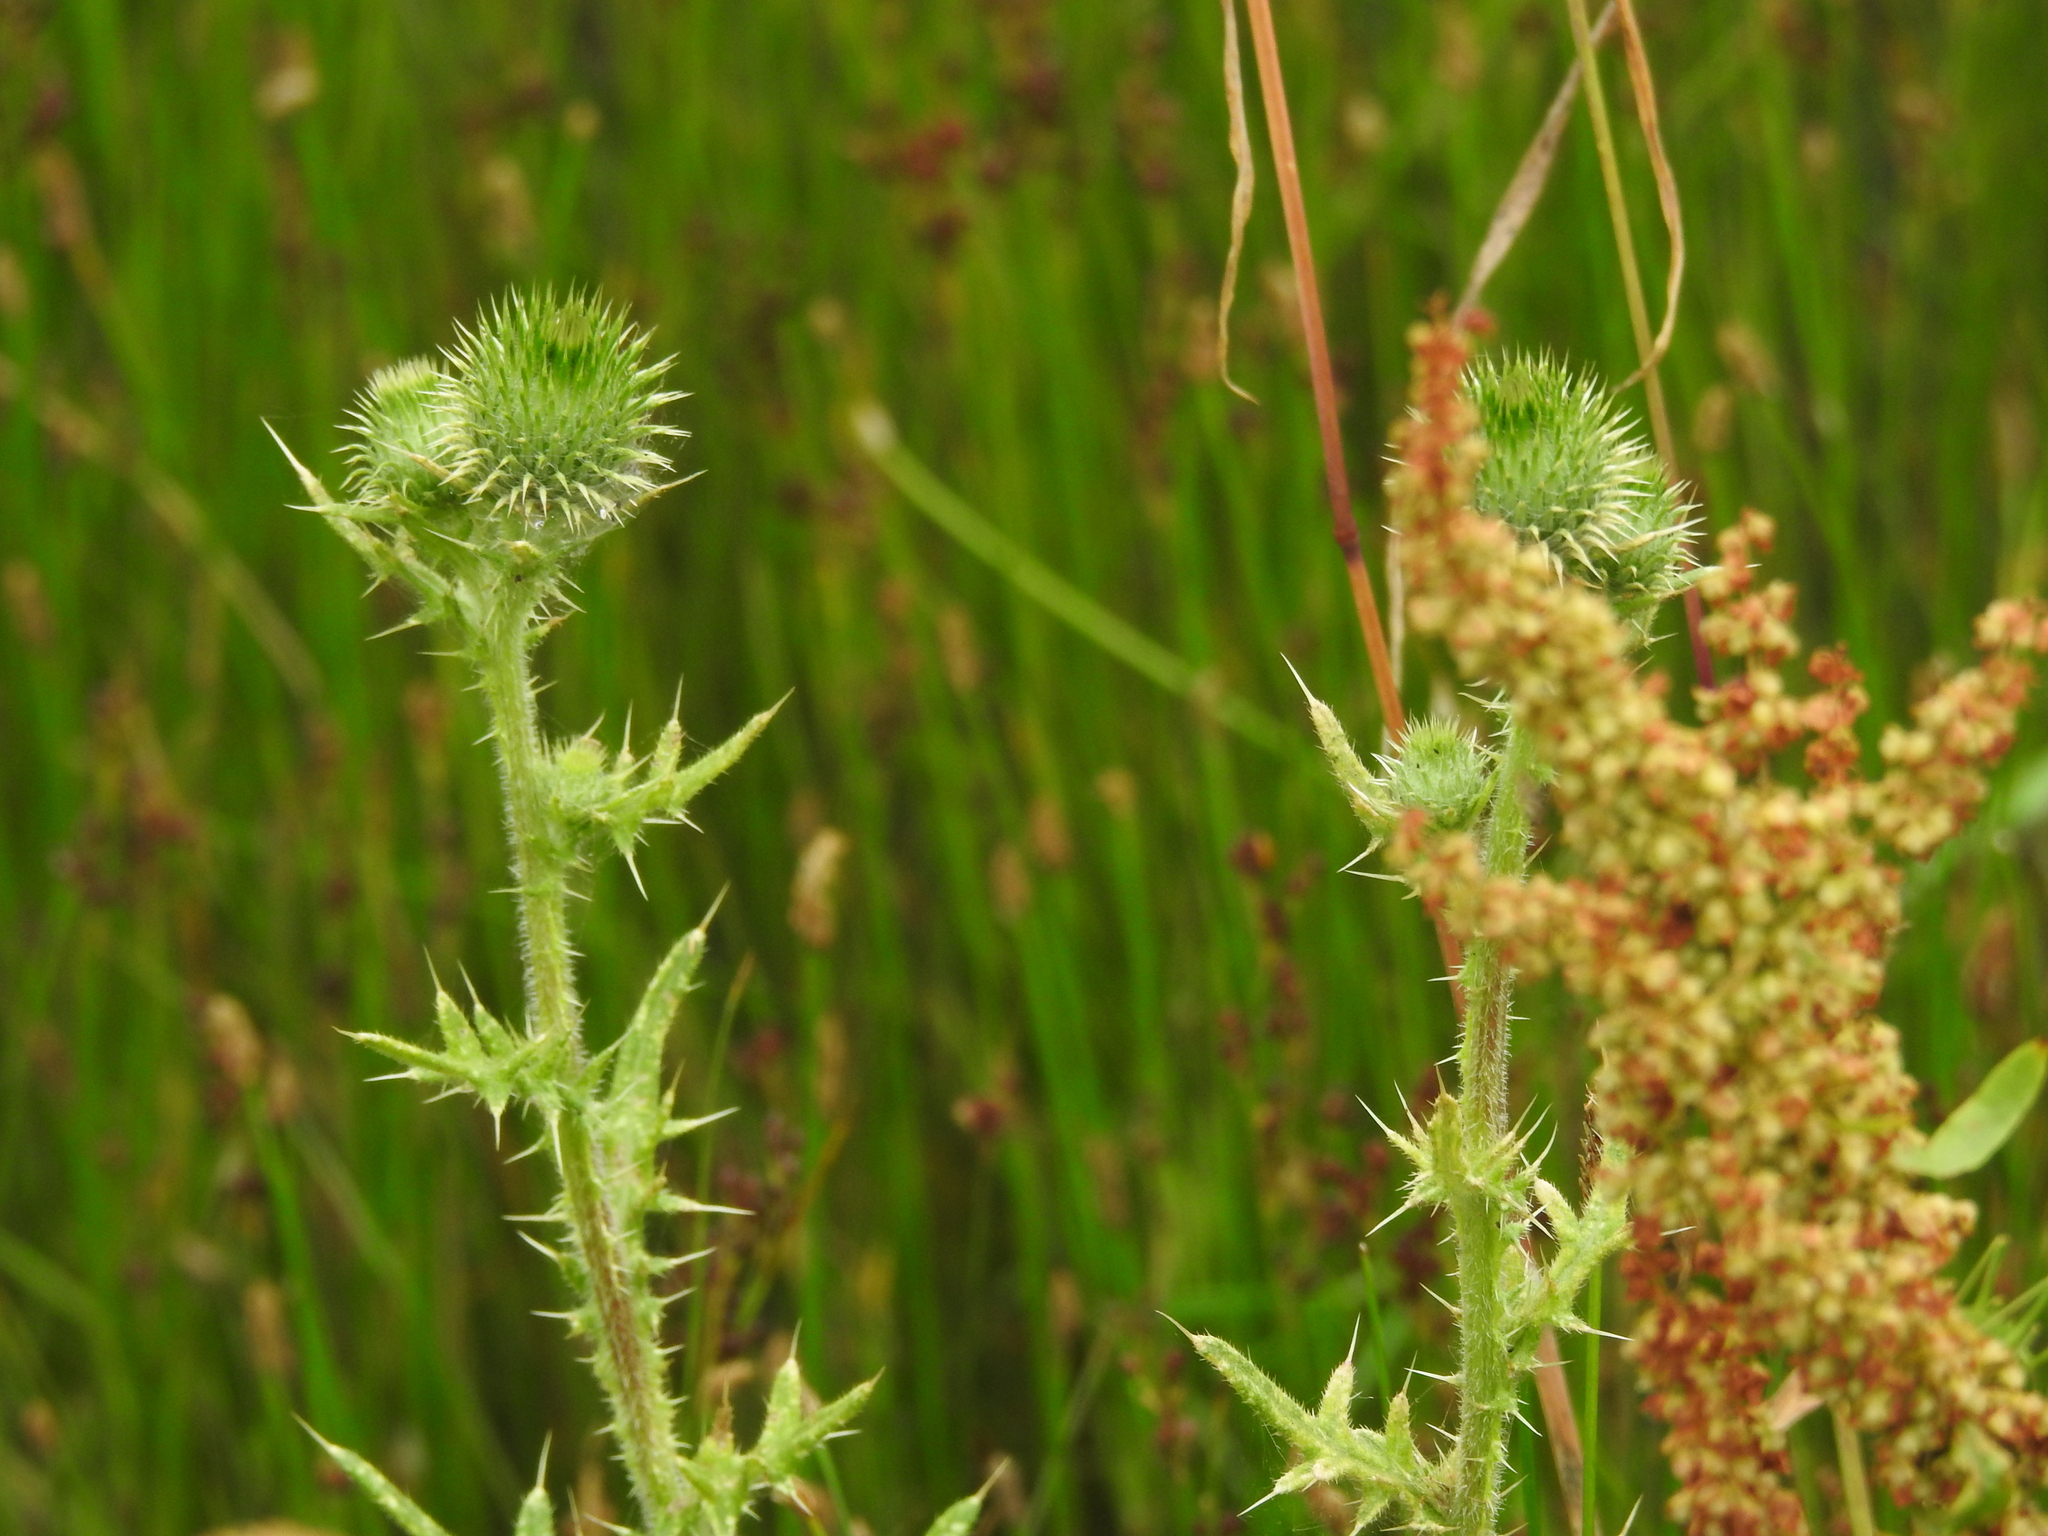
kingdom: Plantae
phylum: Tracheophyta
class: Magnoliopsida
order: Asterales
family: Asteraceae
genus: Cirsium
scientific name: Cirsium vulgare
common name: Bull thistle
